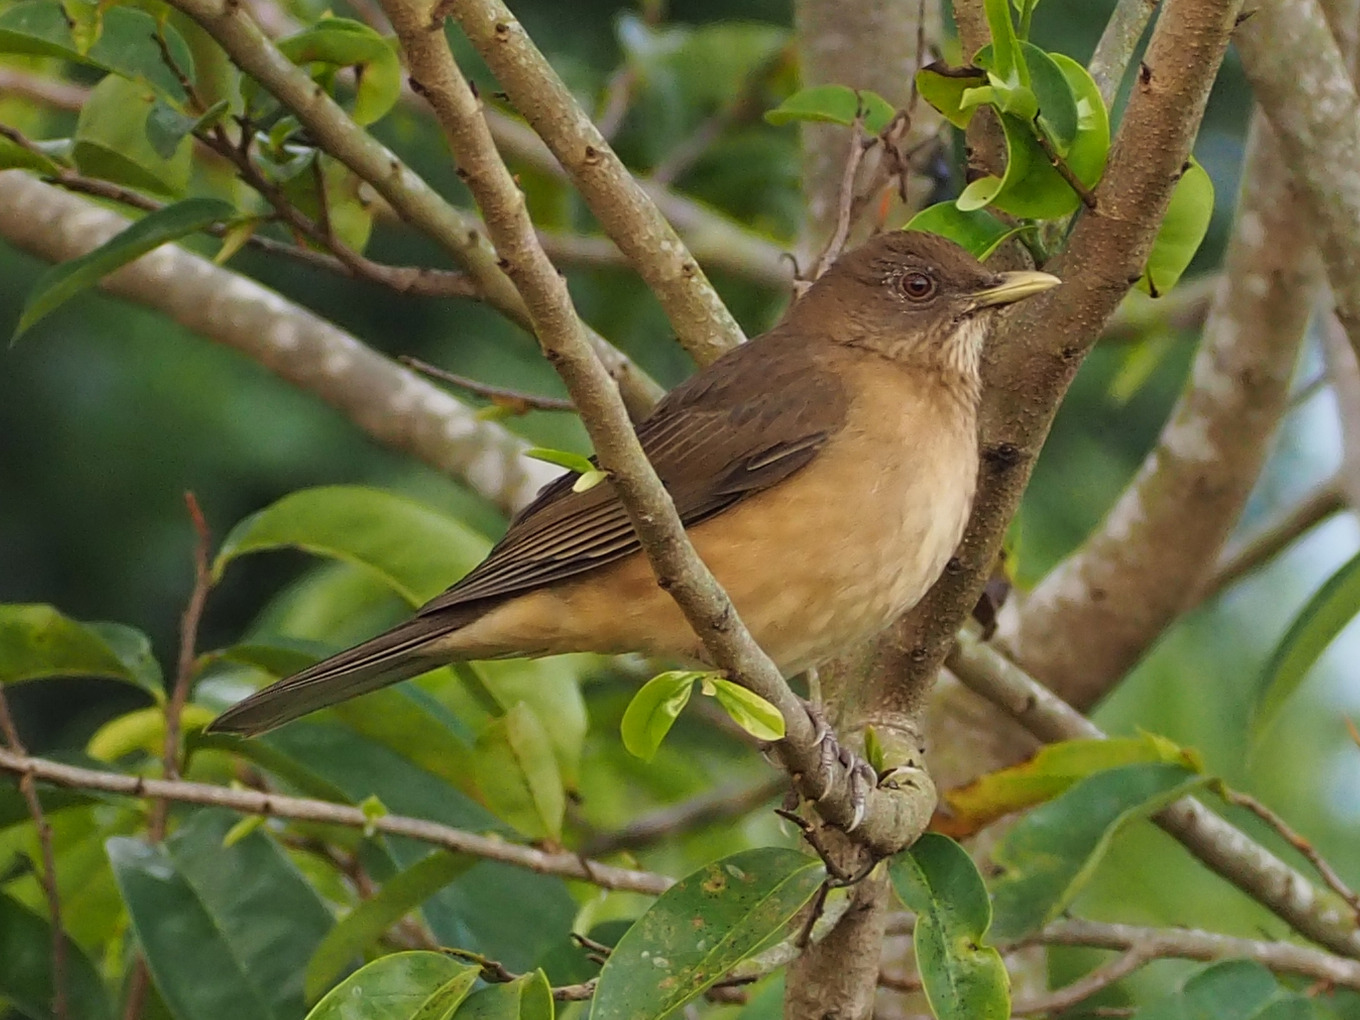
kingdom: Animalia
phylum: Chordata
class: Aves
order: Passeriformes
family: Turdidae
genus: Turdus
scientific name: Turdus grayi
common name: Clay-colored thrush
